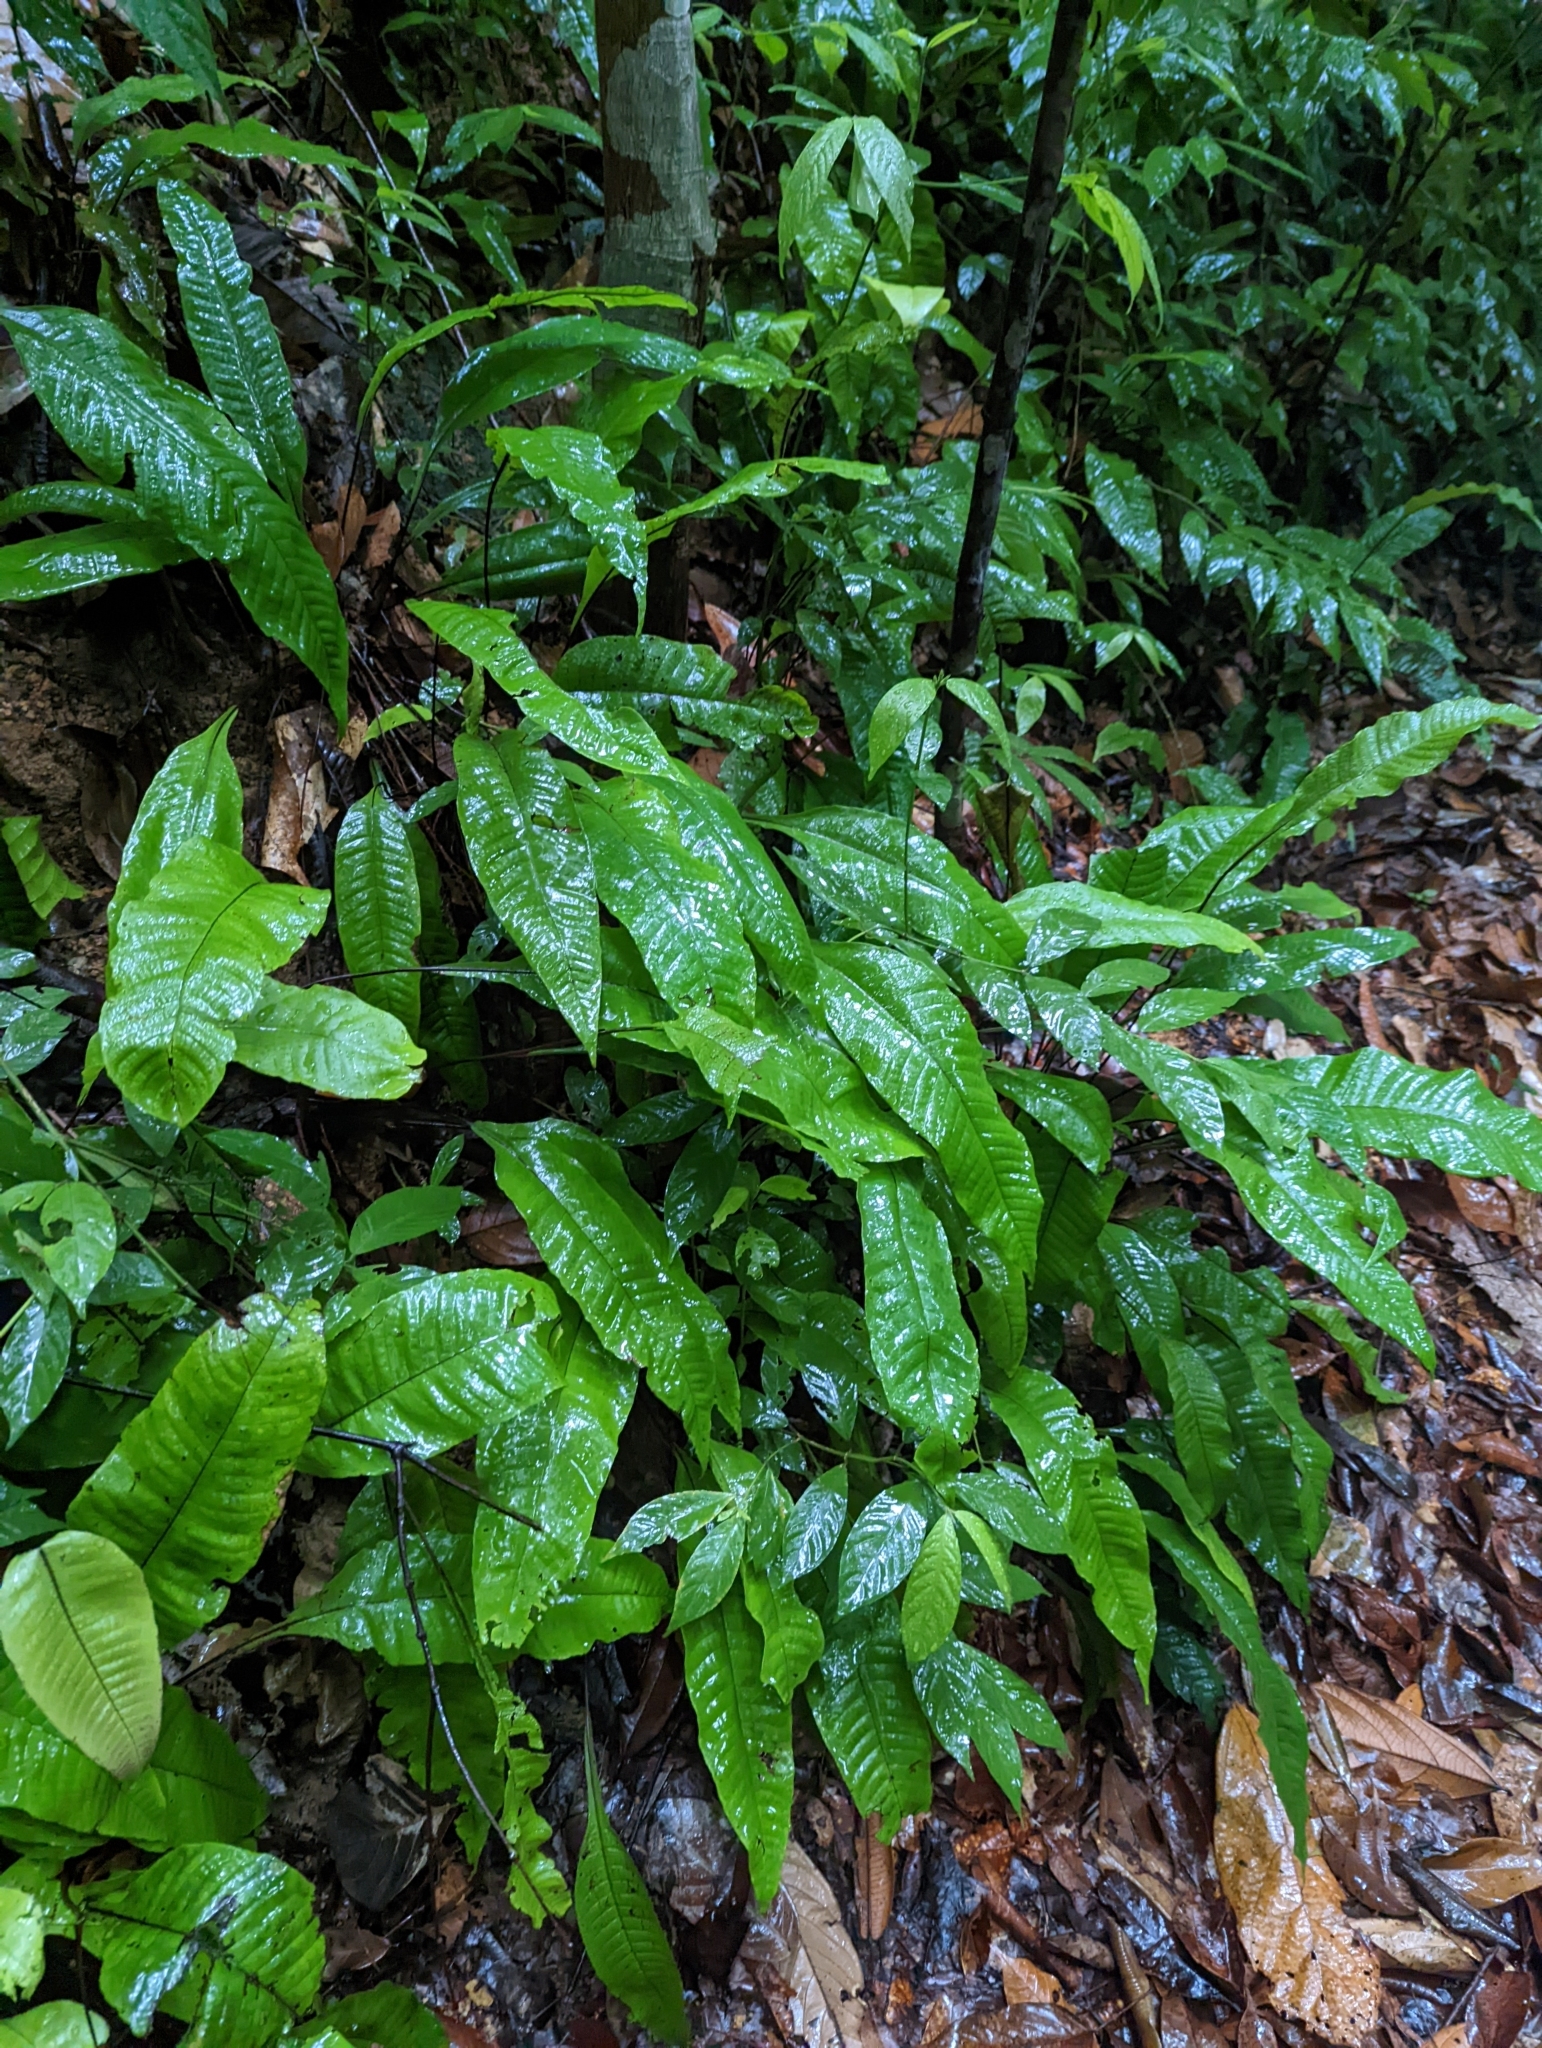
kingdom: Plantae
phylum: Tracheophyta
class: Polypodiopsida
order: Polypodiales
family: Tectariaceae
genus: Tectaria
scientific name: Tectaria singaporiana
